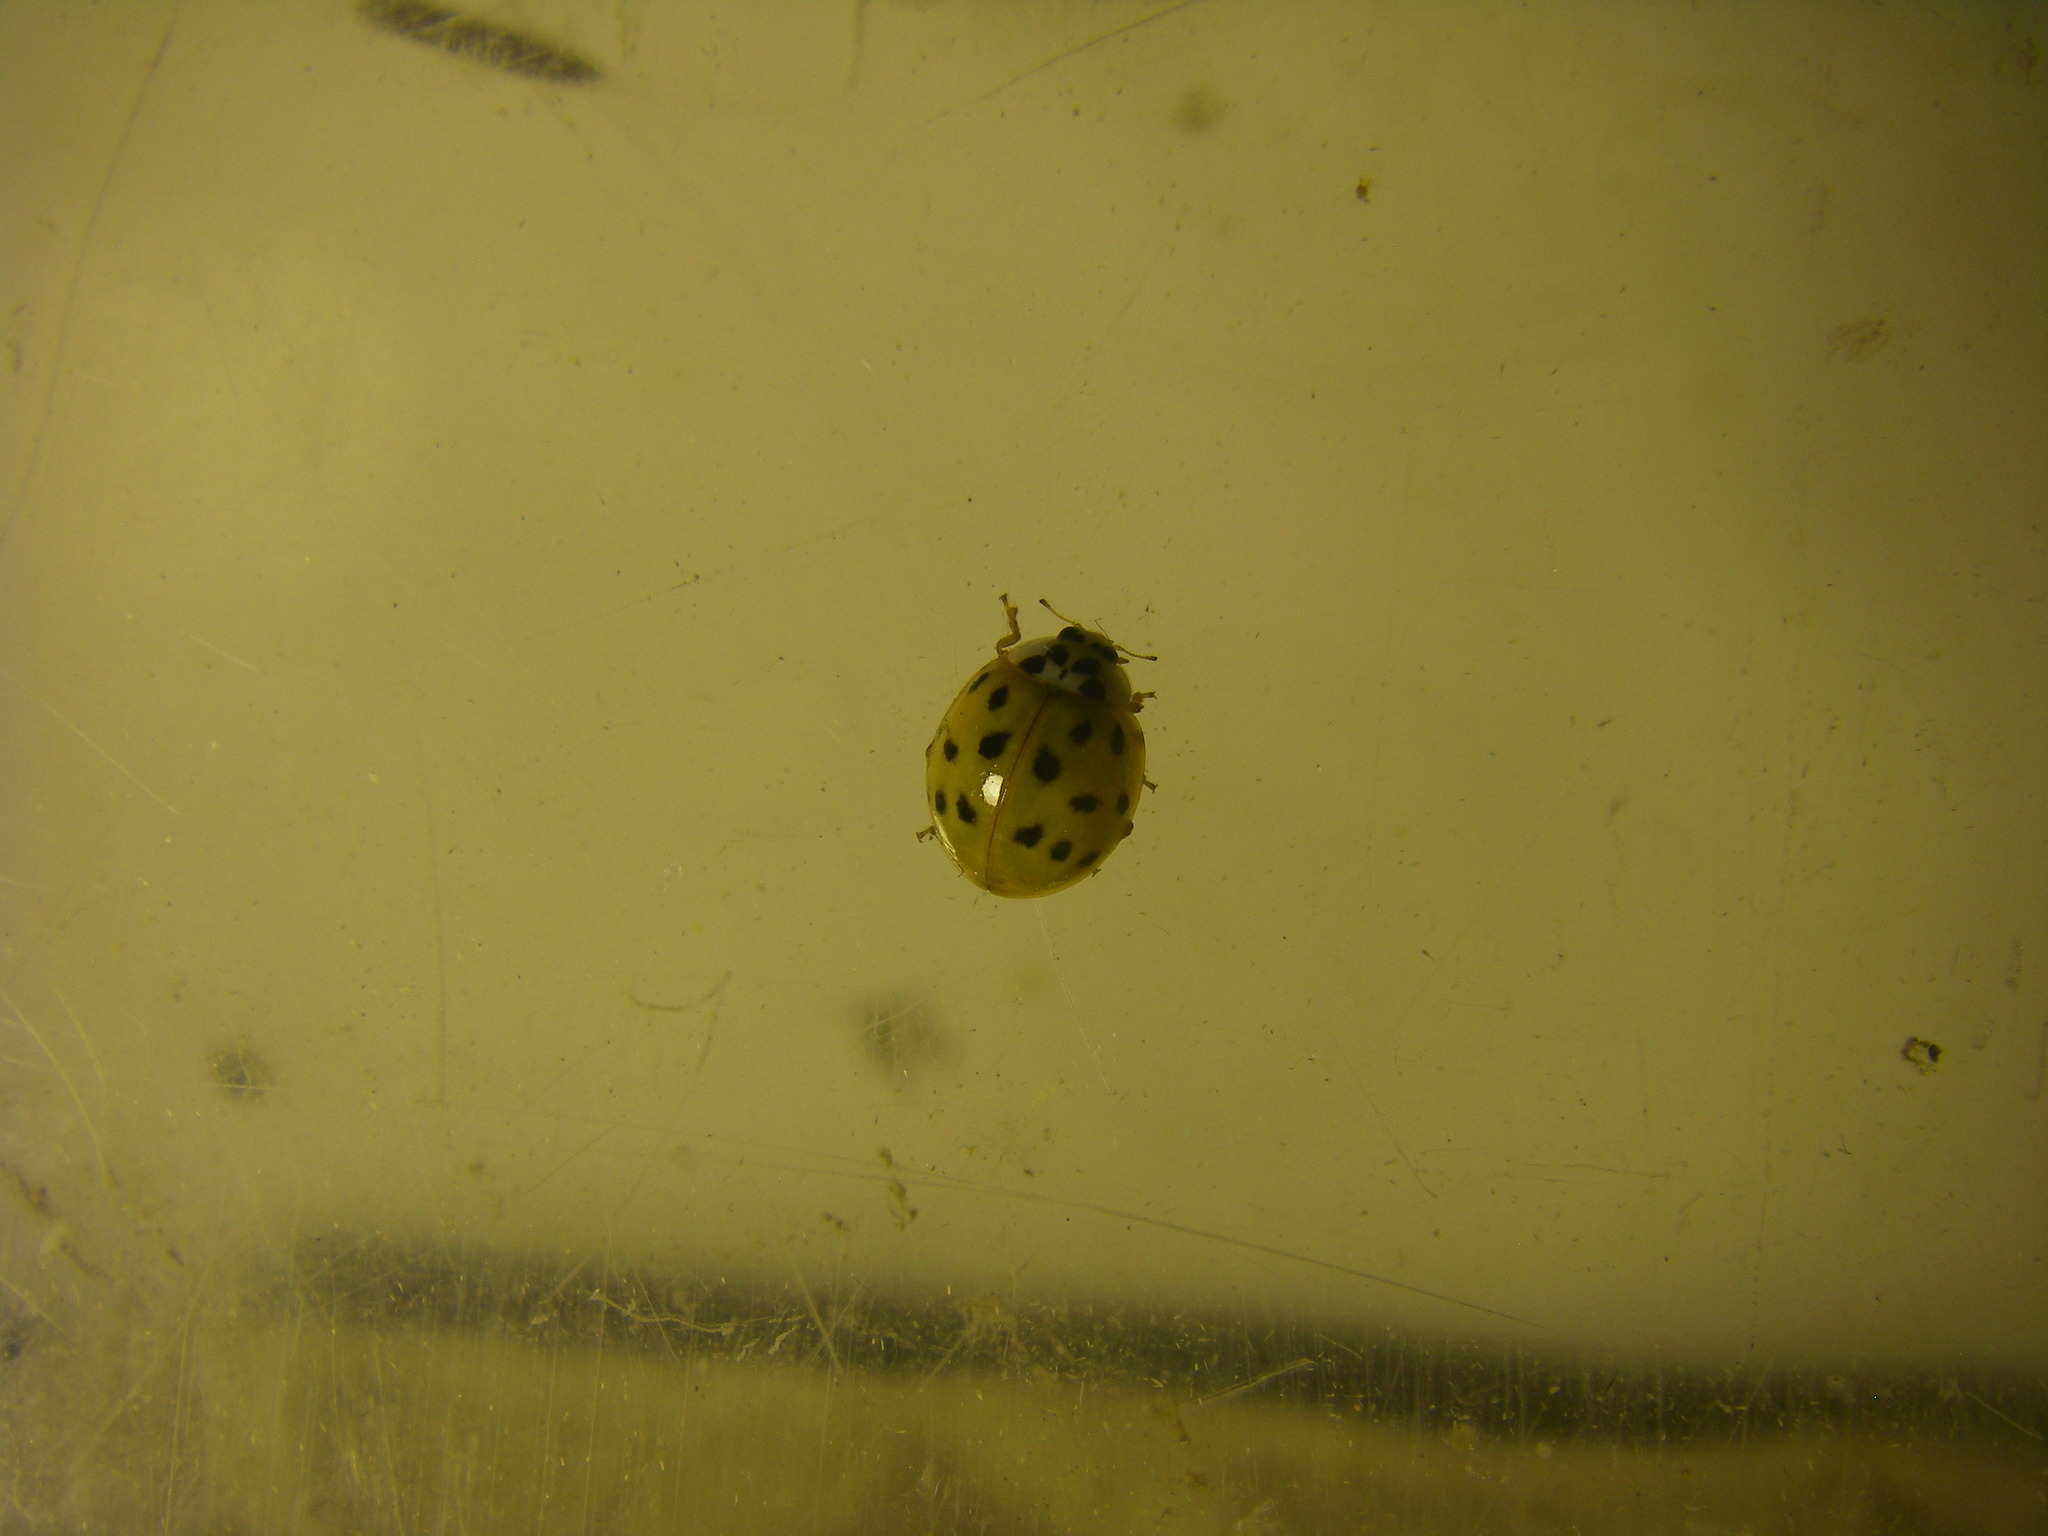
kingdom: Animalia
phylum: Arthropoda
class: Insecta
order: Coleoptera
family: Coccinellidae
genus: Harmonia
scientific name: Harmonia axyridis
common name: Harlequin ladybird
